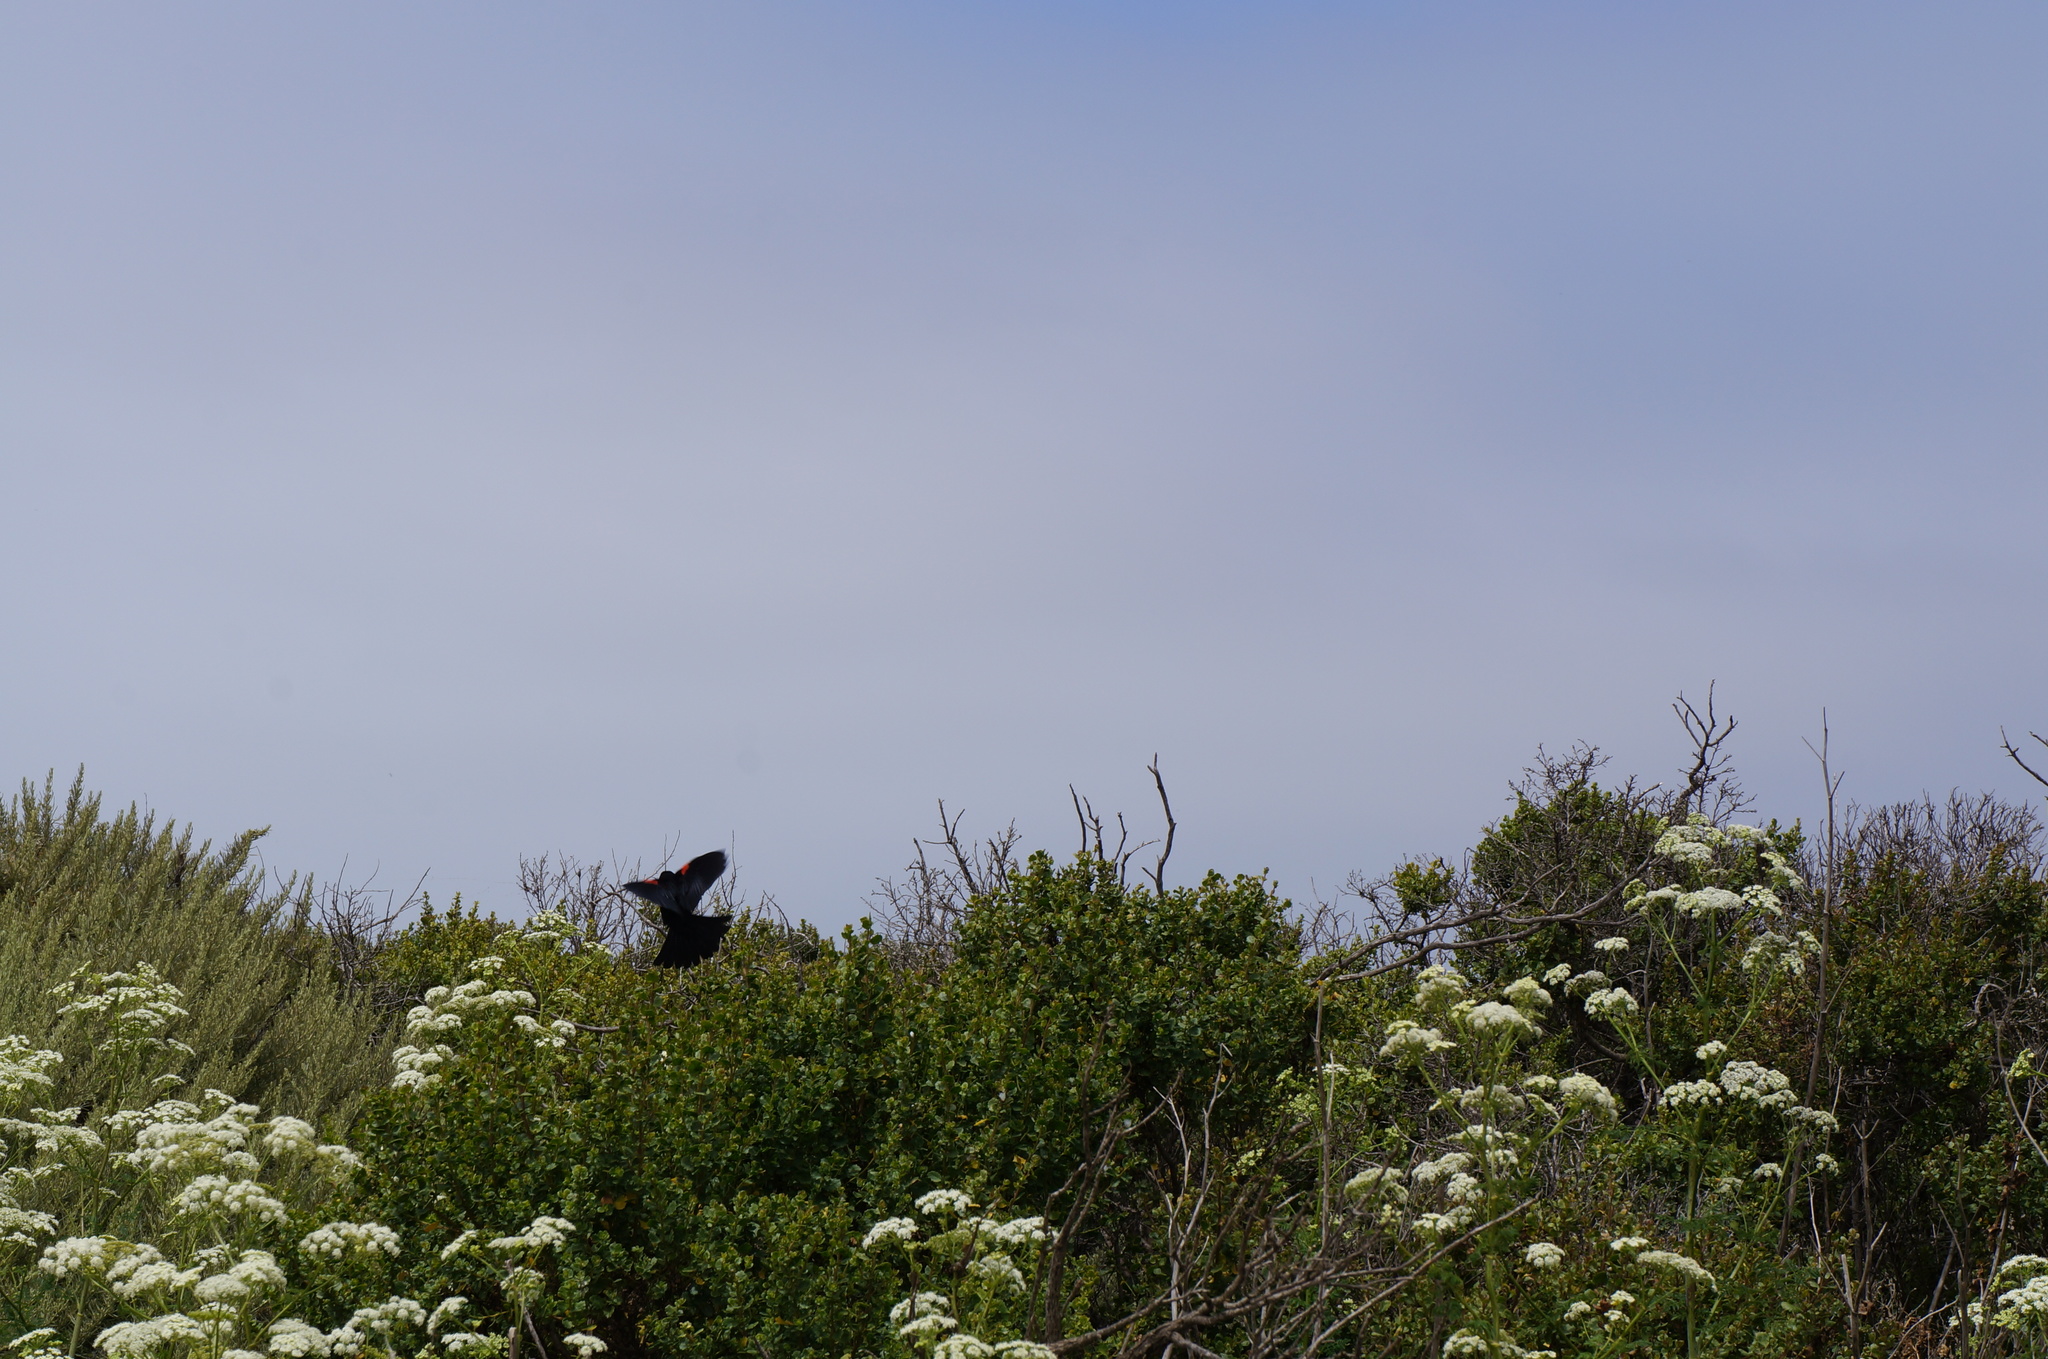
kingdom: Animalia
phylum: Chordata
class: Aves
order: Passeriformes
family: Icteridae
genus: Agelaius
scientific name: Agelaius phoeniceus
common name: Red-winged blackbird
